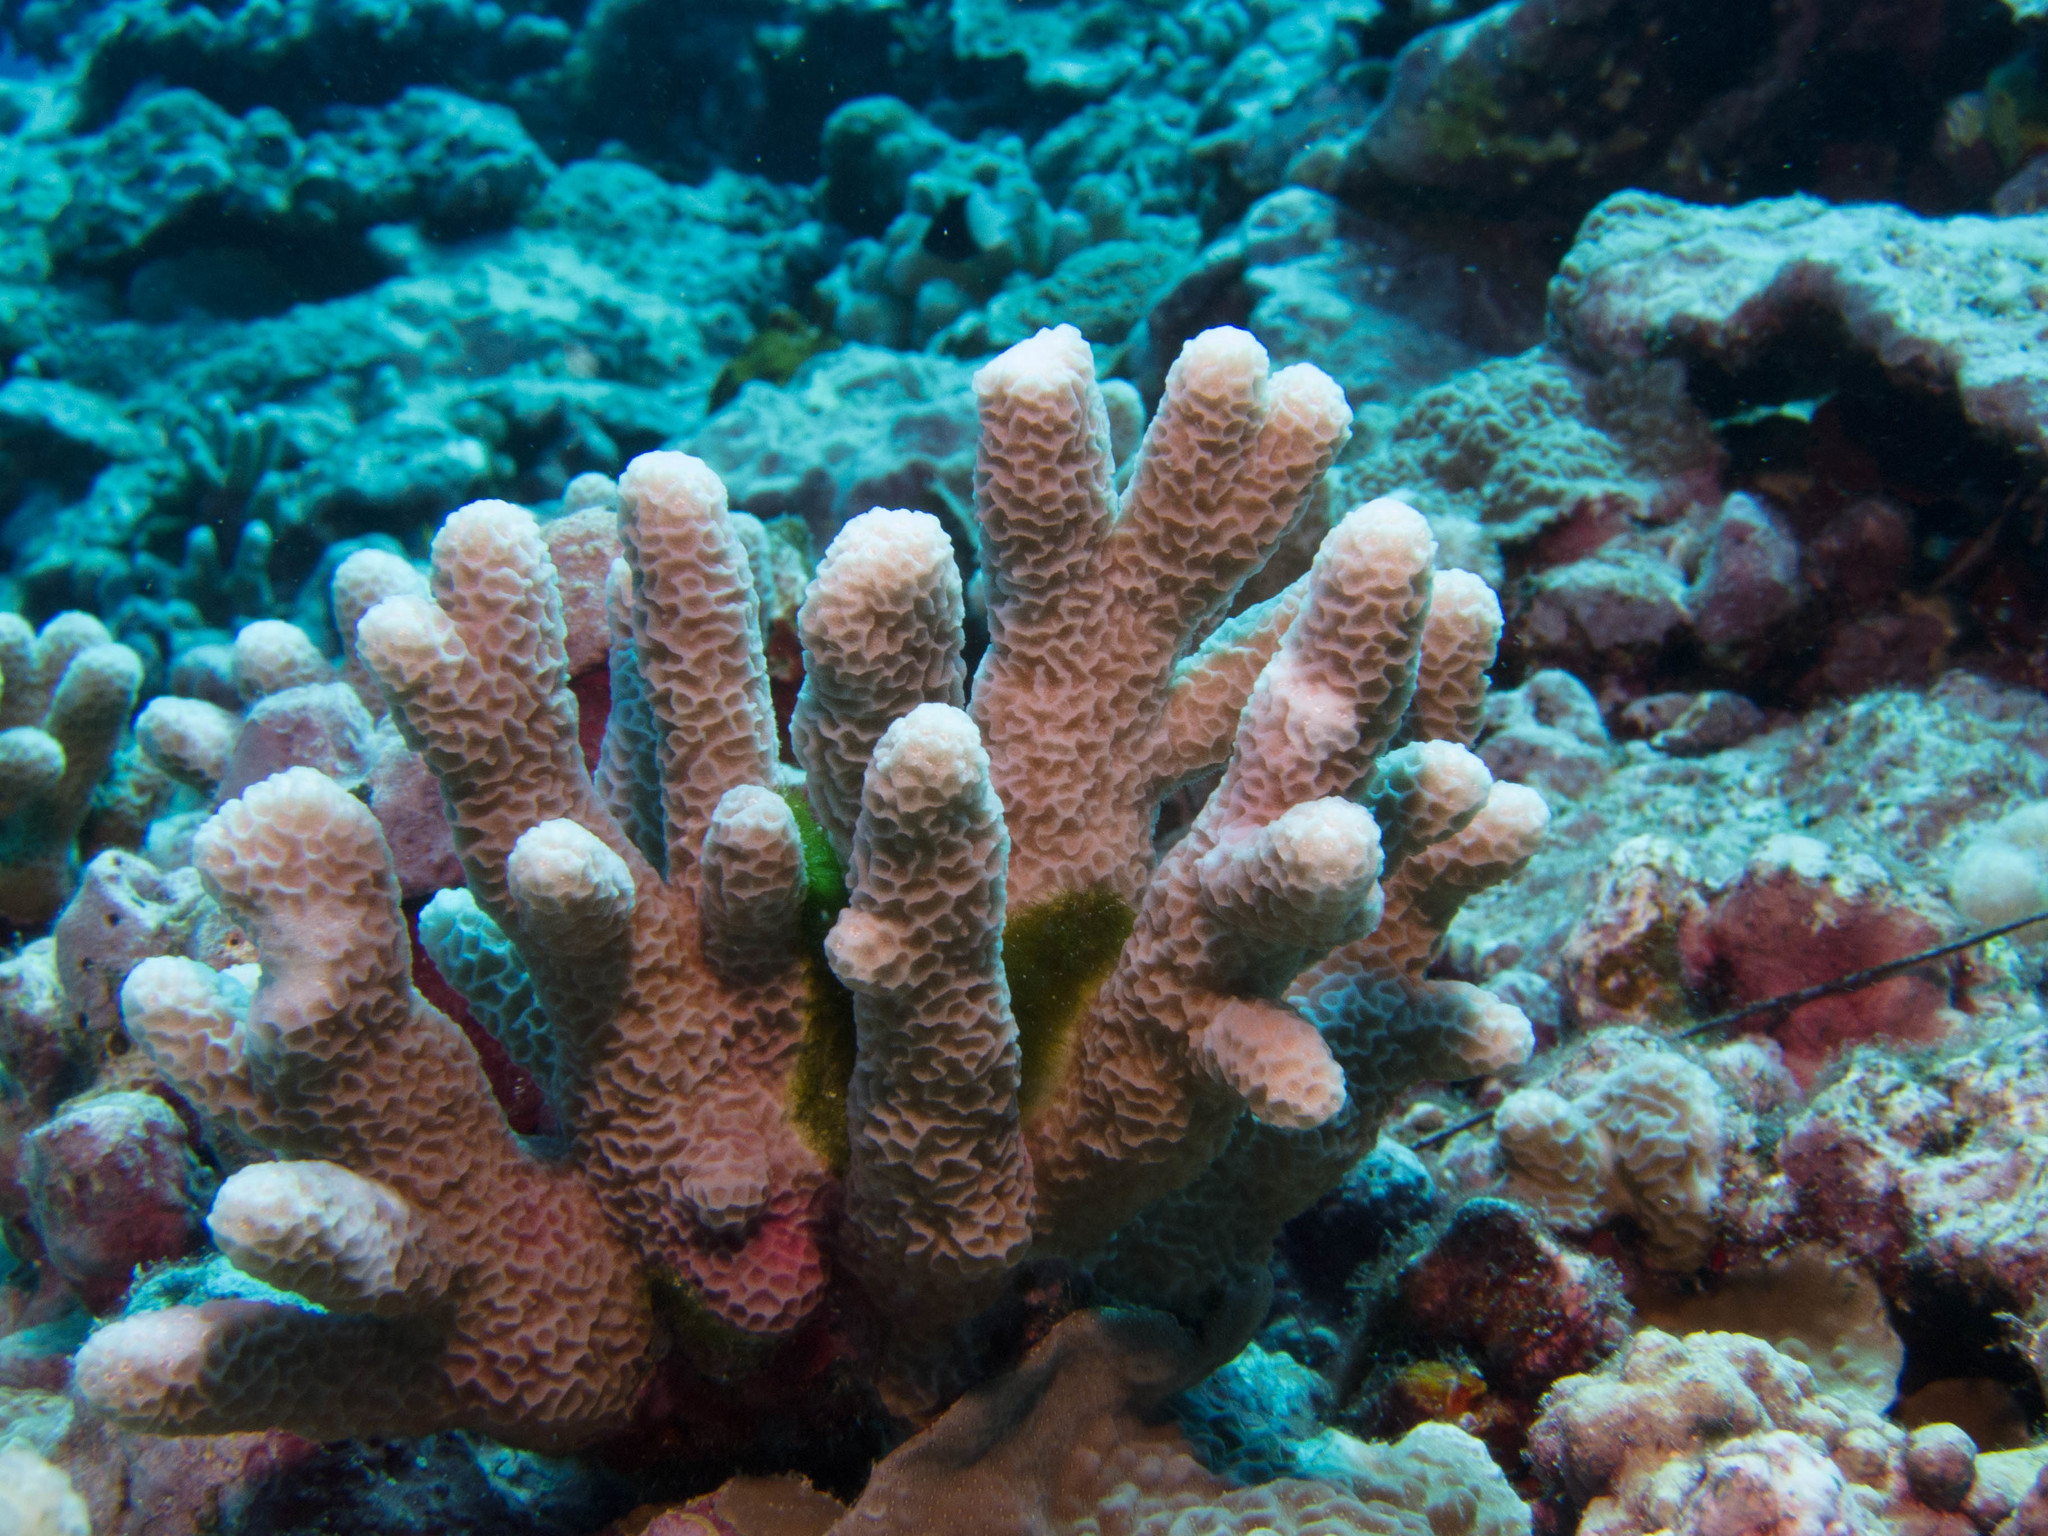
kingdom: Animalia
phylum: Cnidaria
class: Anthozoa
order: Scleractinia
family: Acroporidae
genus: Montipora
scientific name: Montipora angulata
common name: Pore coral
